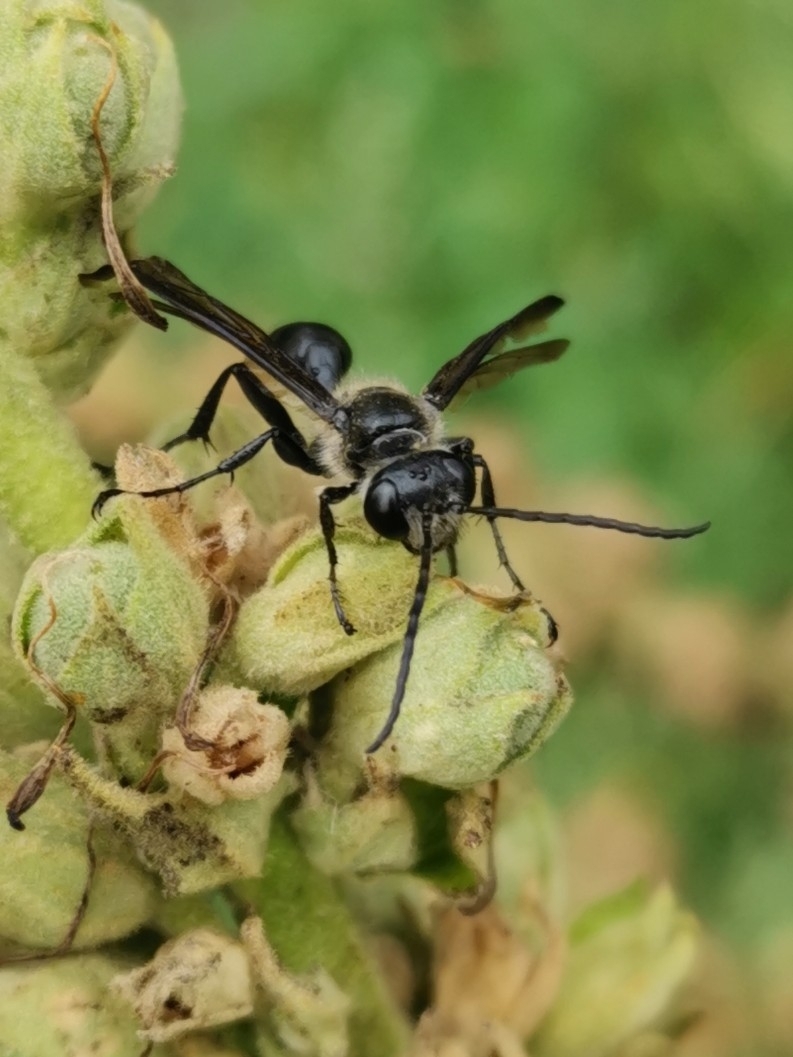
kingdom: Animalia
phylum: Arthropoda
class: Insecta
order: Hymenoptera
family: Sphecidae
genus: Isodontia
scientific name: Isodontia mexicana
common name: Mud dauber
